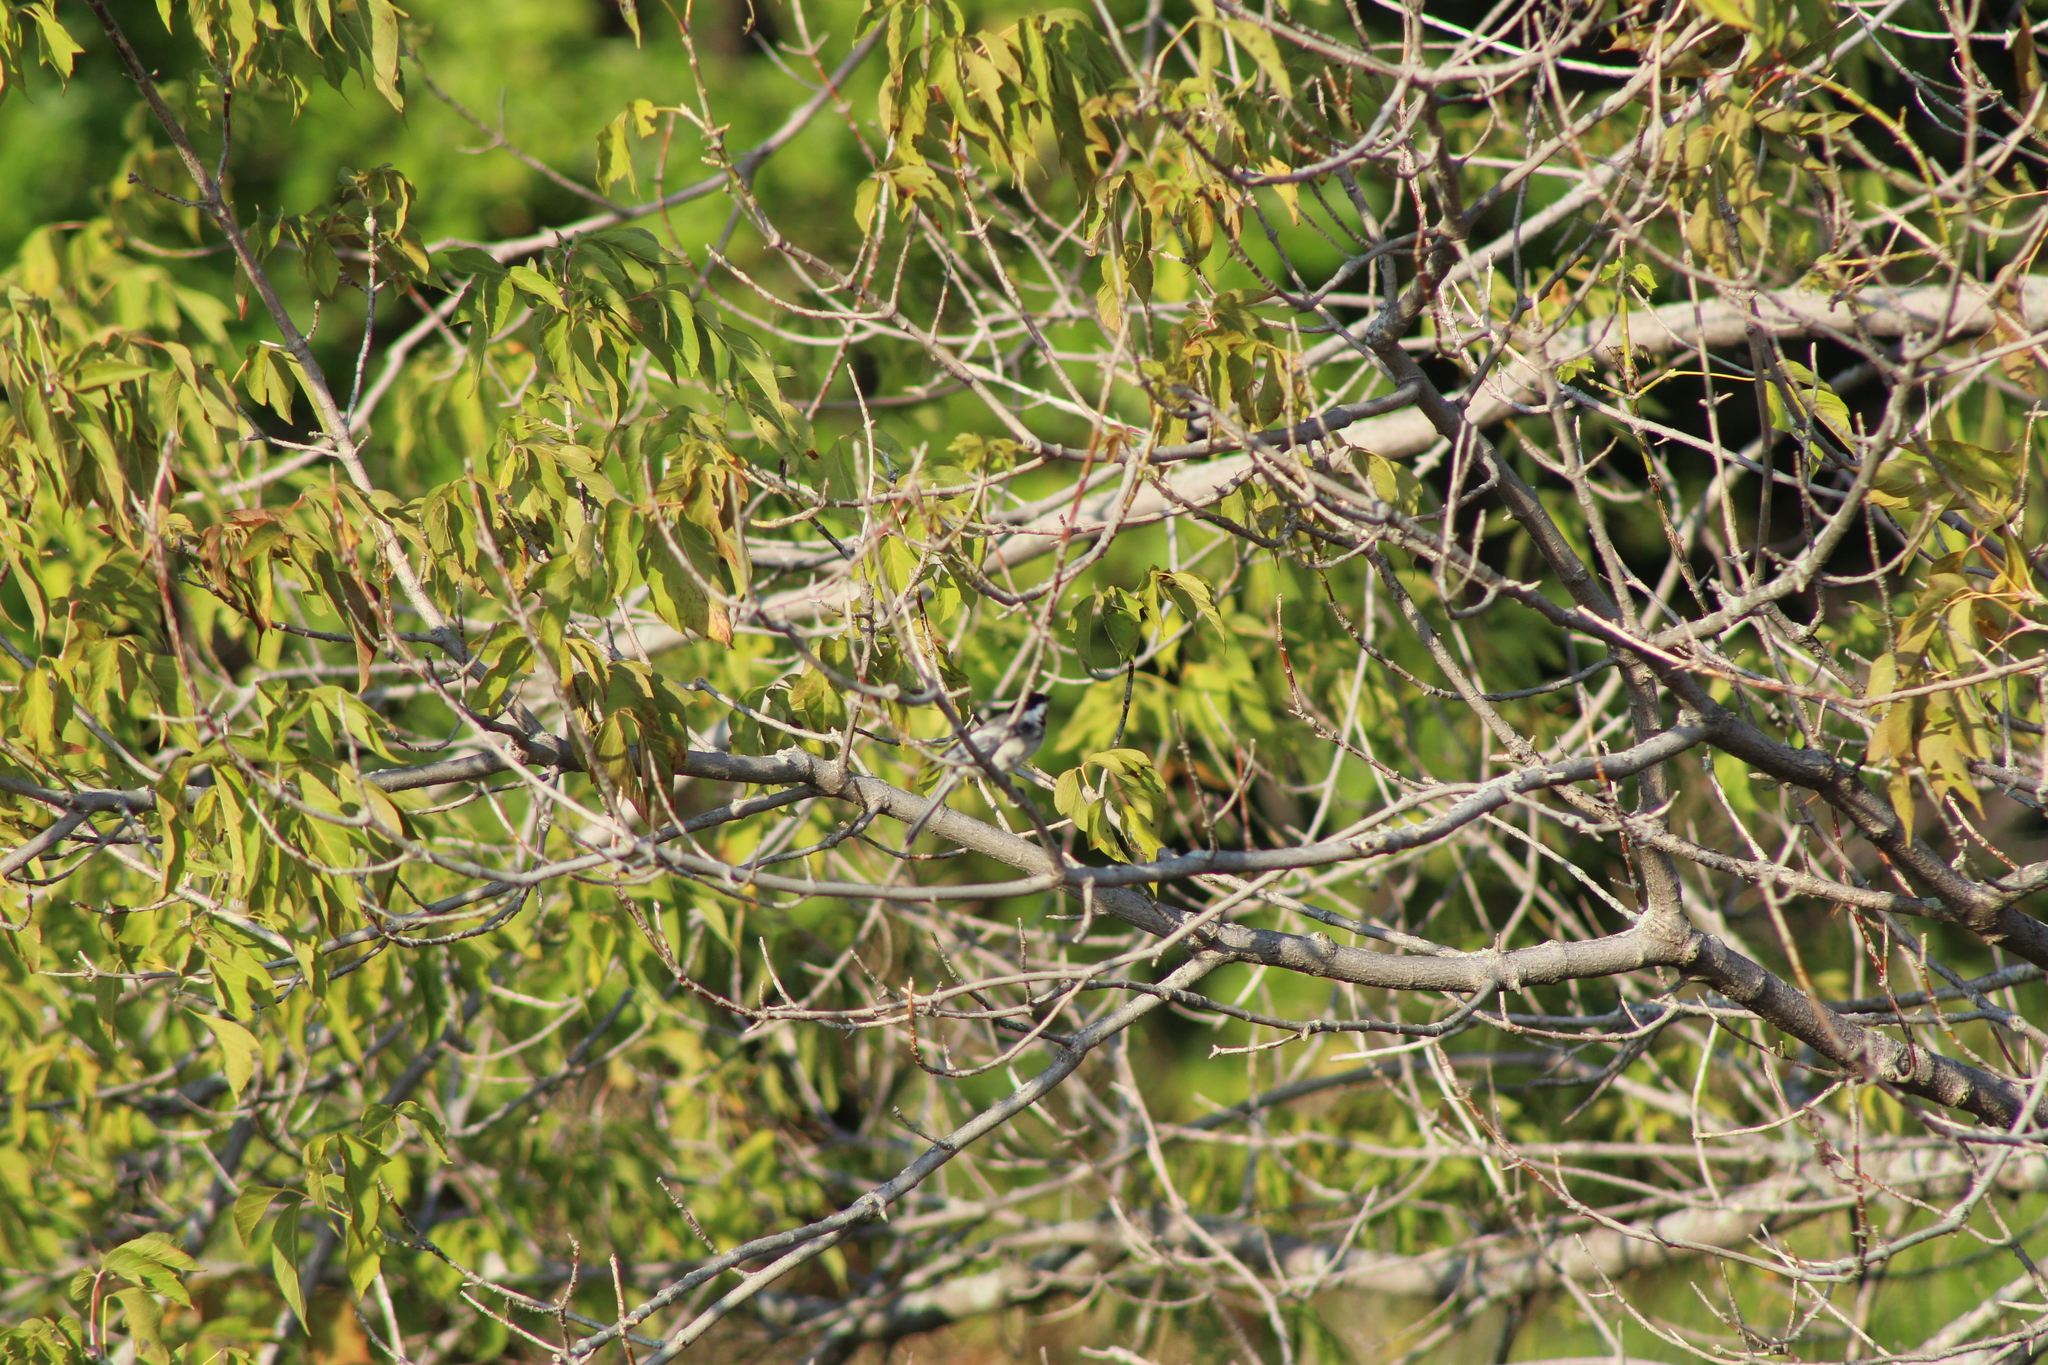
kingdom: Animalia
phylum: Chordata
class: Aves
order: Passeriformes
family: Paridae
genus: Poecile
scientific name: Poecile atricapillus
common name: Black-capped chickadee
